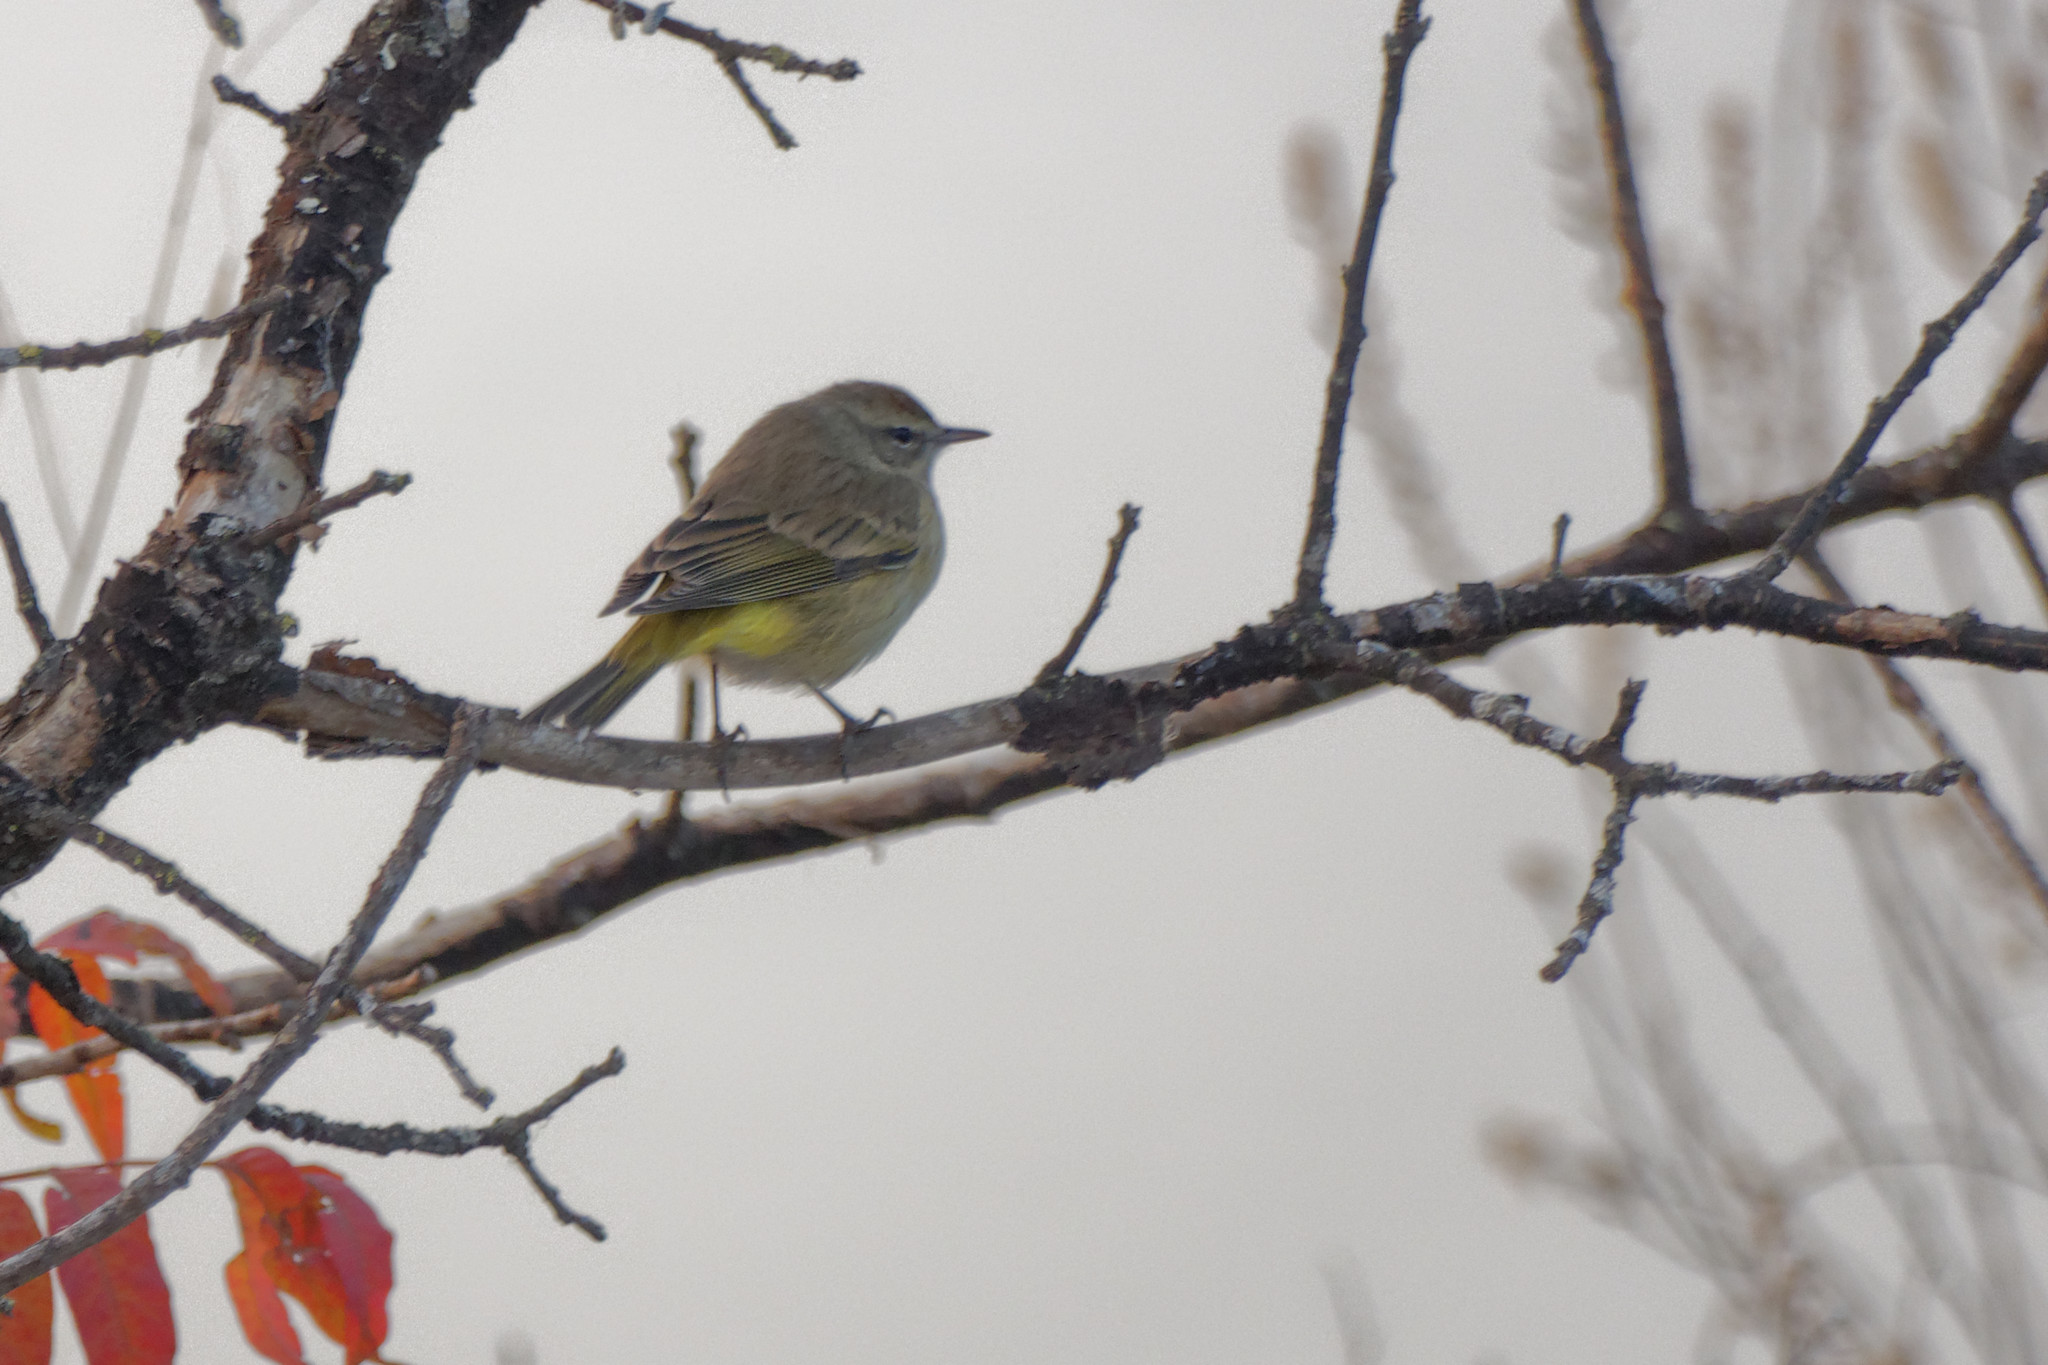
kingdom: Animalia
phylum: Chordata
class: Aves
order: Passeriformes
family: Parulidae
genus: Setophaga
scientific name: Setophaga palmarum
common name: Palm warbler
